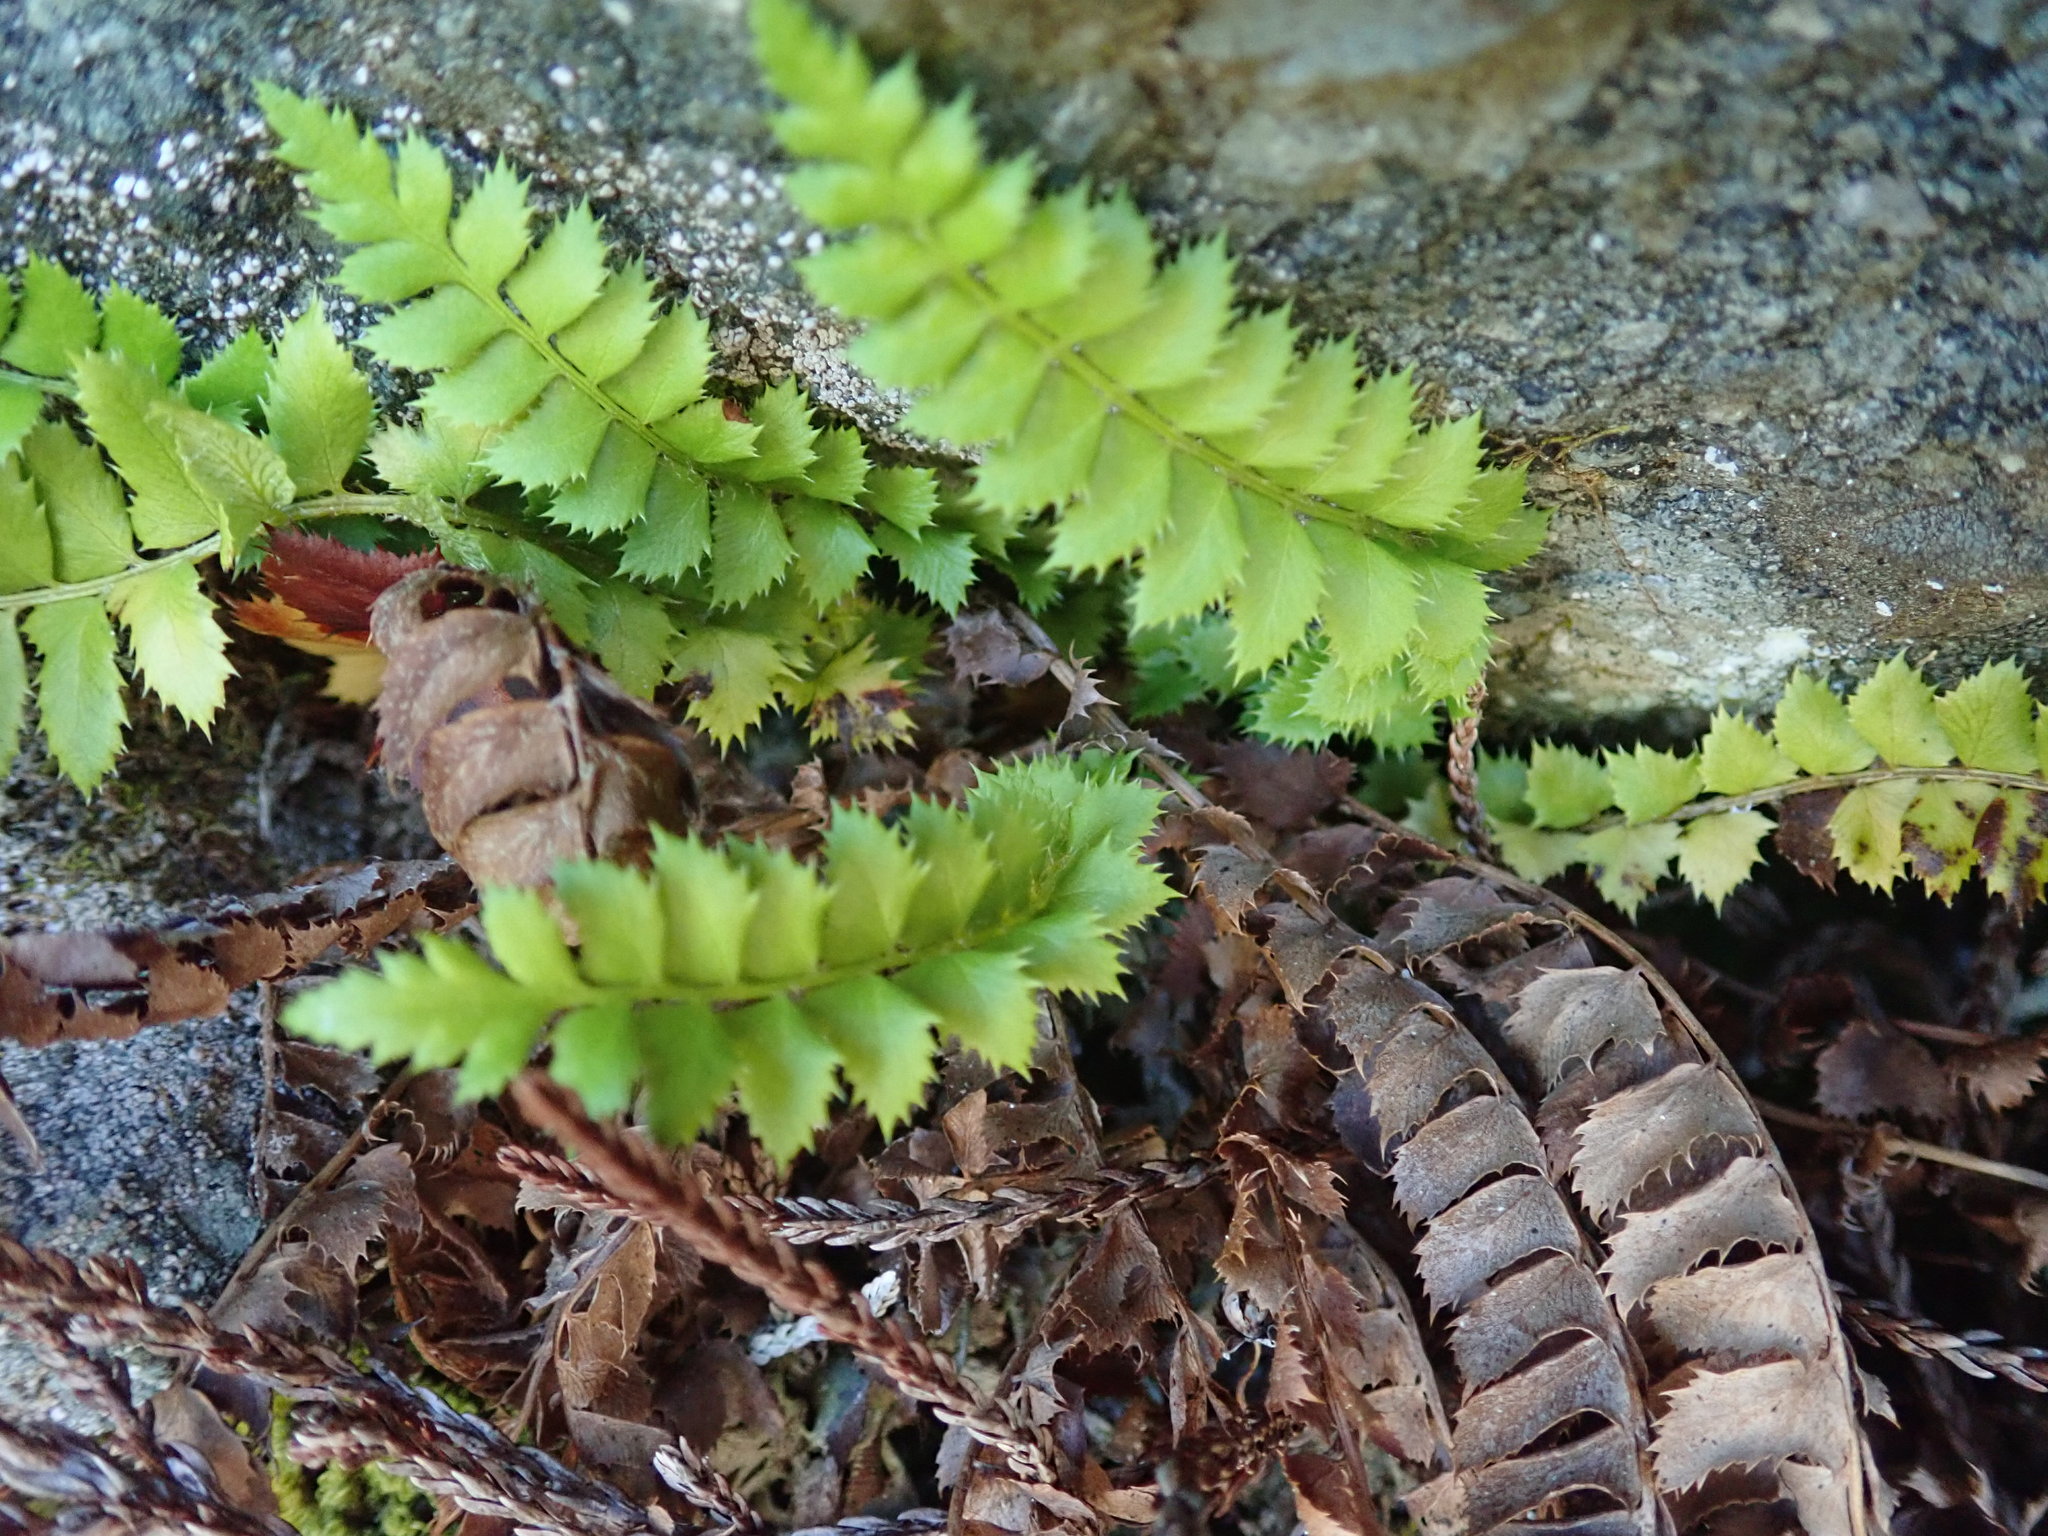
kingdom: Plantae
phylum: Tracheophyta
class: Polypodiopsida
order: Polypodiales
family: Dryopteridaceae
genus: Polystichum
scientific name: Polystichum lonchitis
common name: Holly fern
